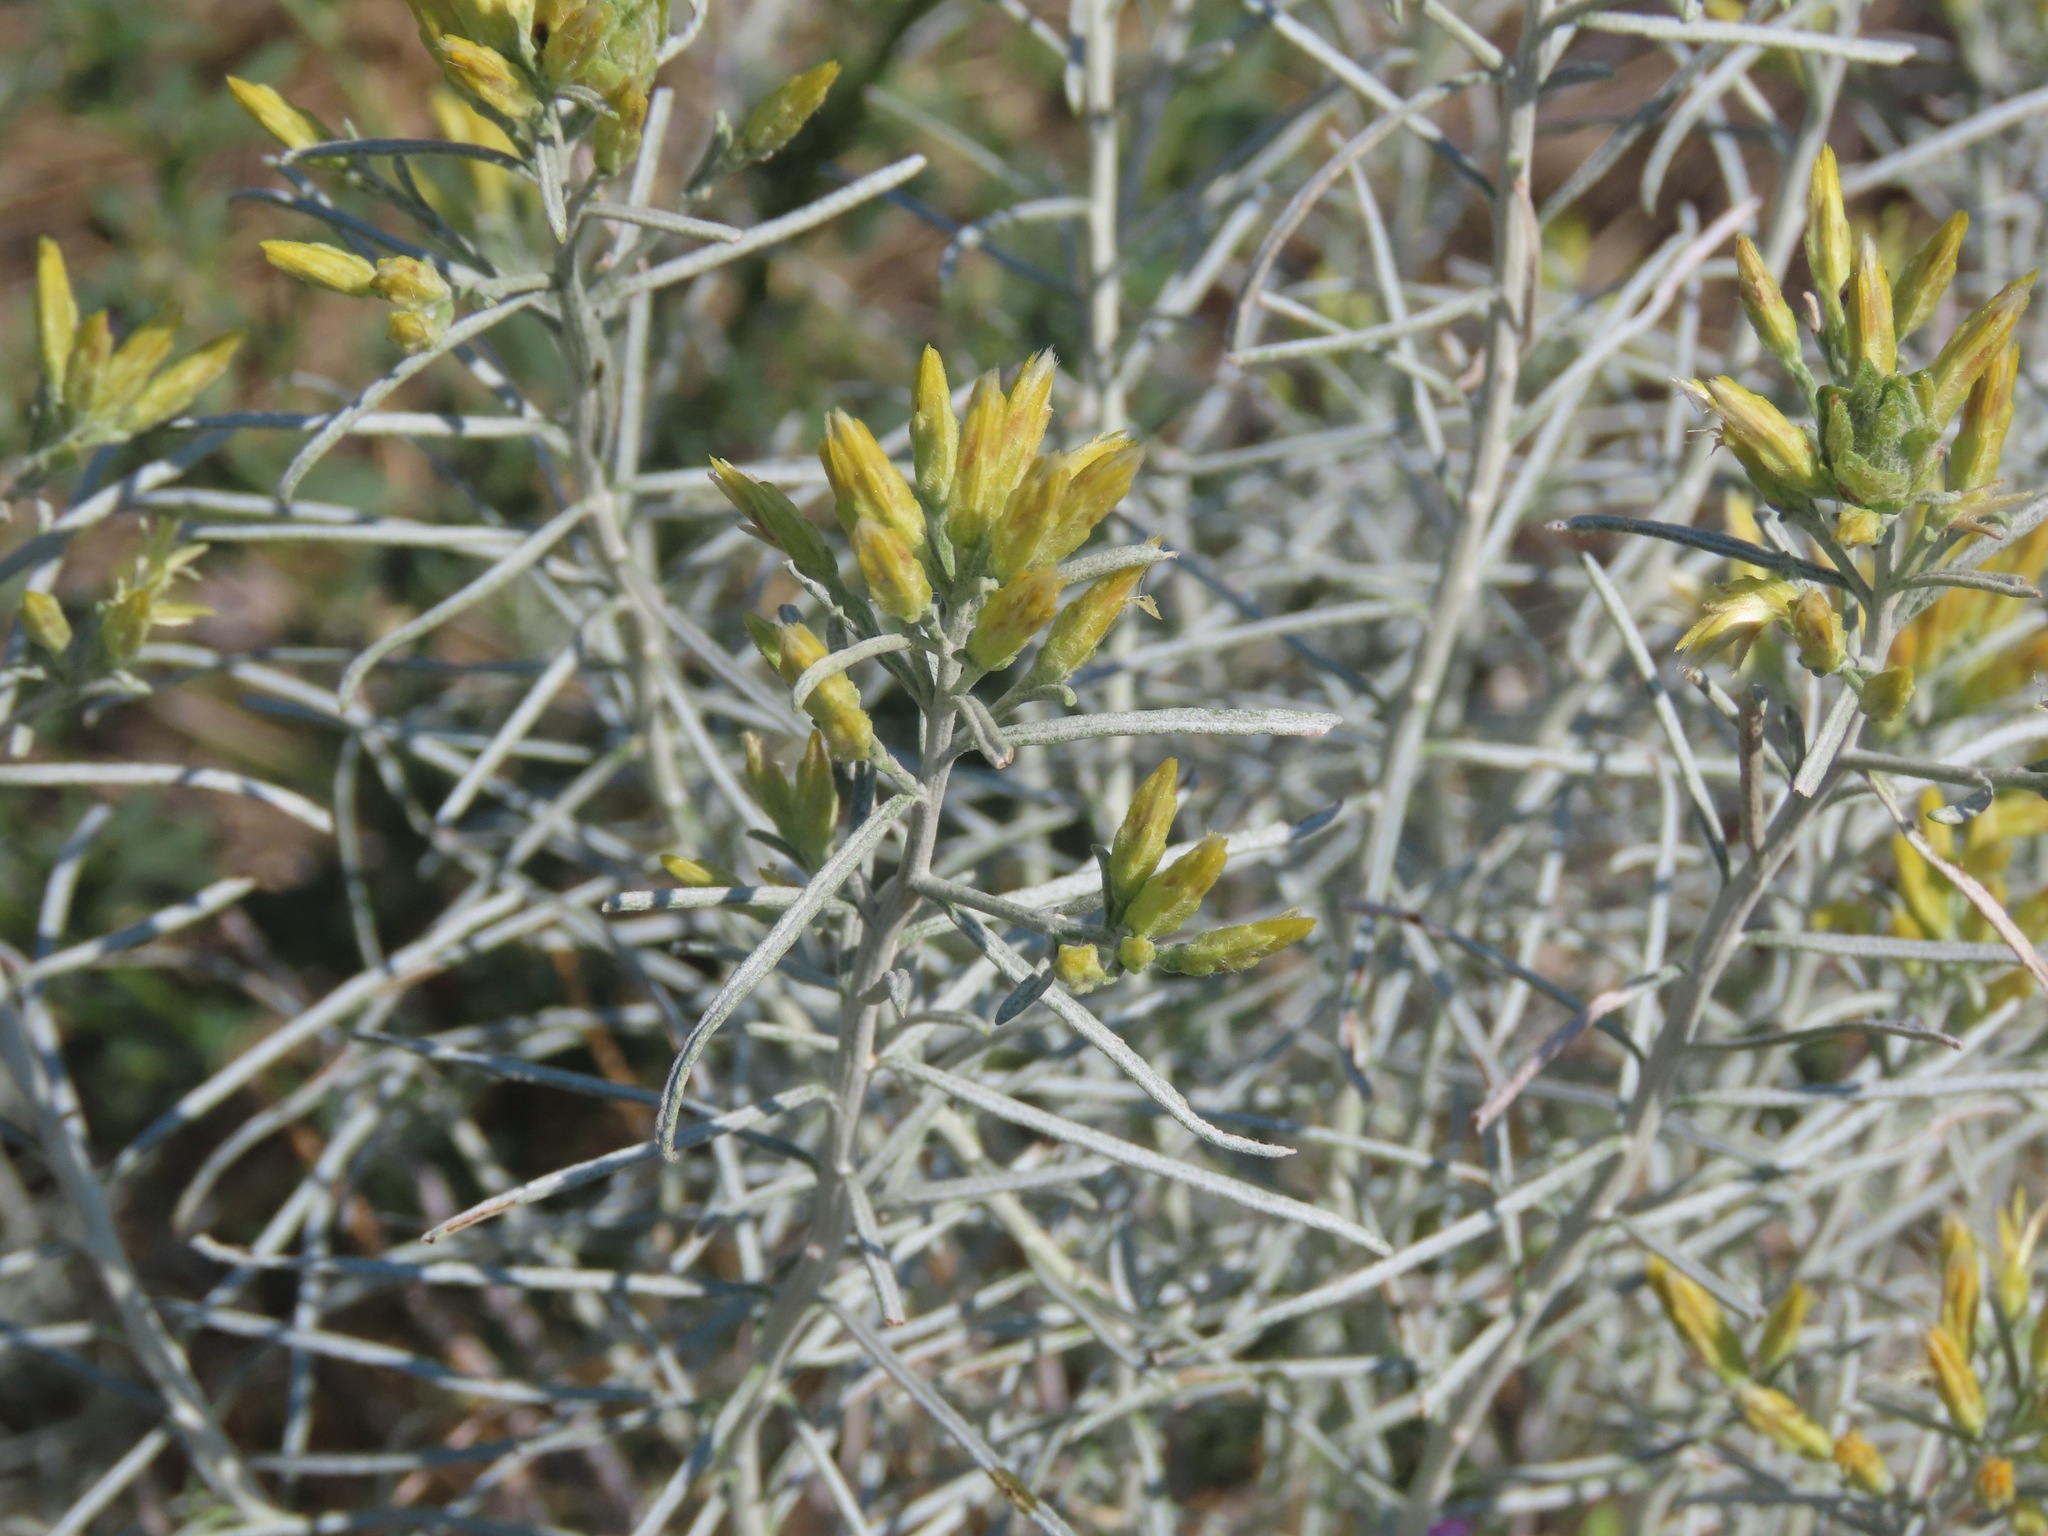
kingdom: Plantae
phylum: Tracheophyta
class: Magnoliopsida
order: Asterales
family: Asteraceae
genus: Ericameria
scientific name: Ericameria nauseosa
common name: Rubber rabbitbrush
